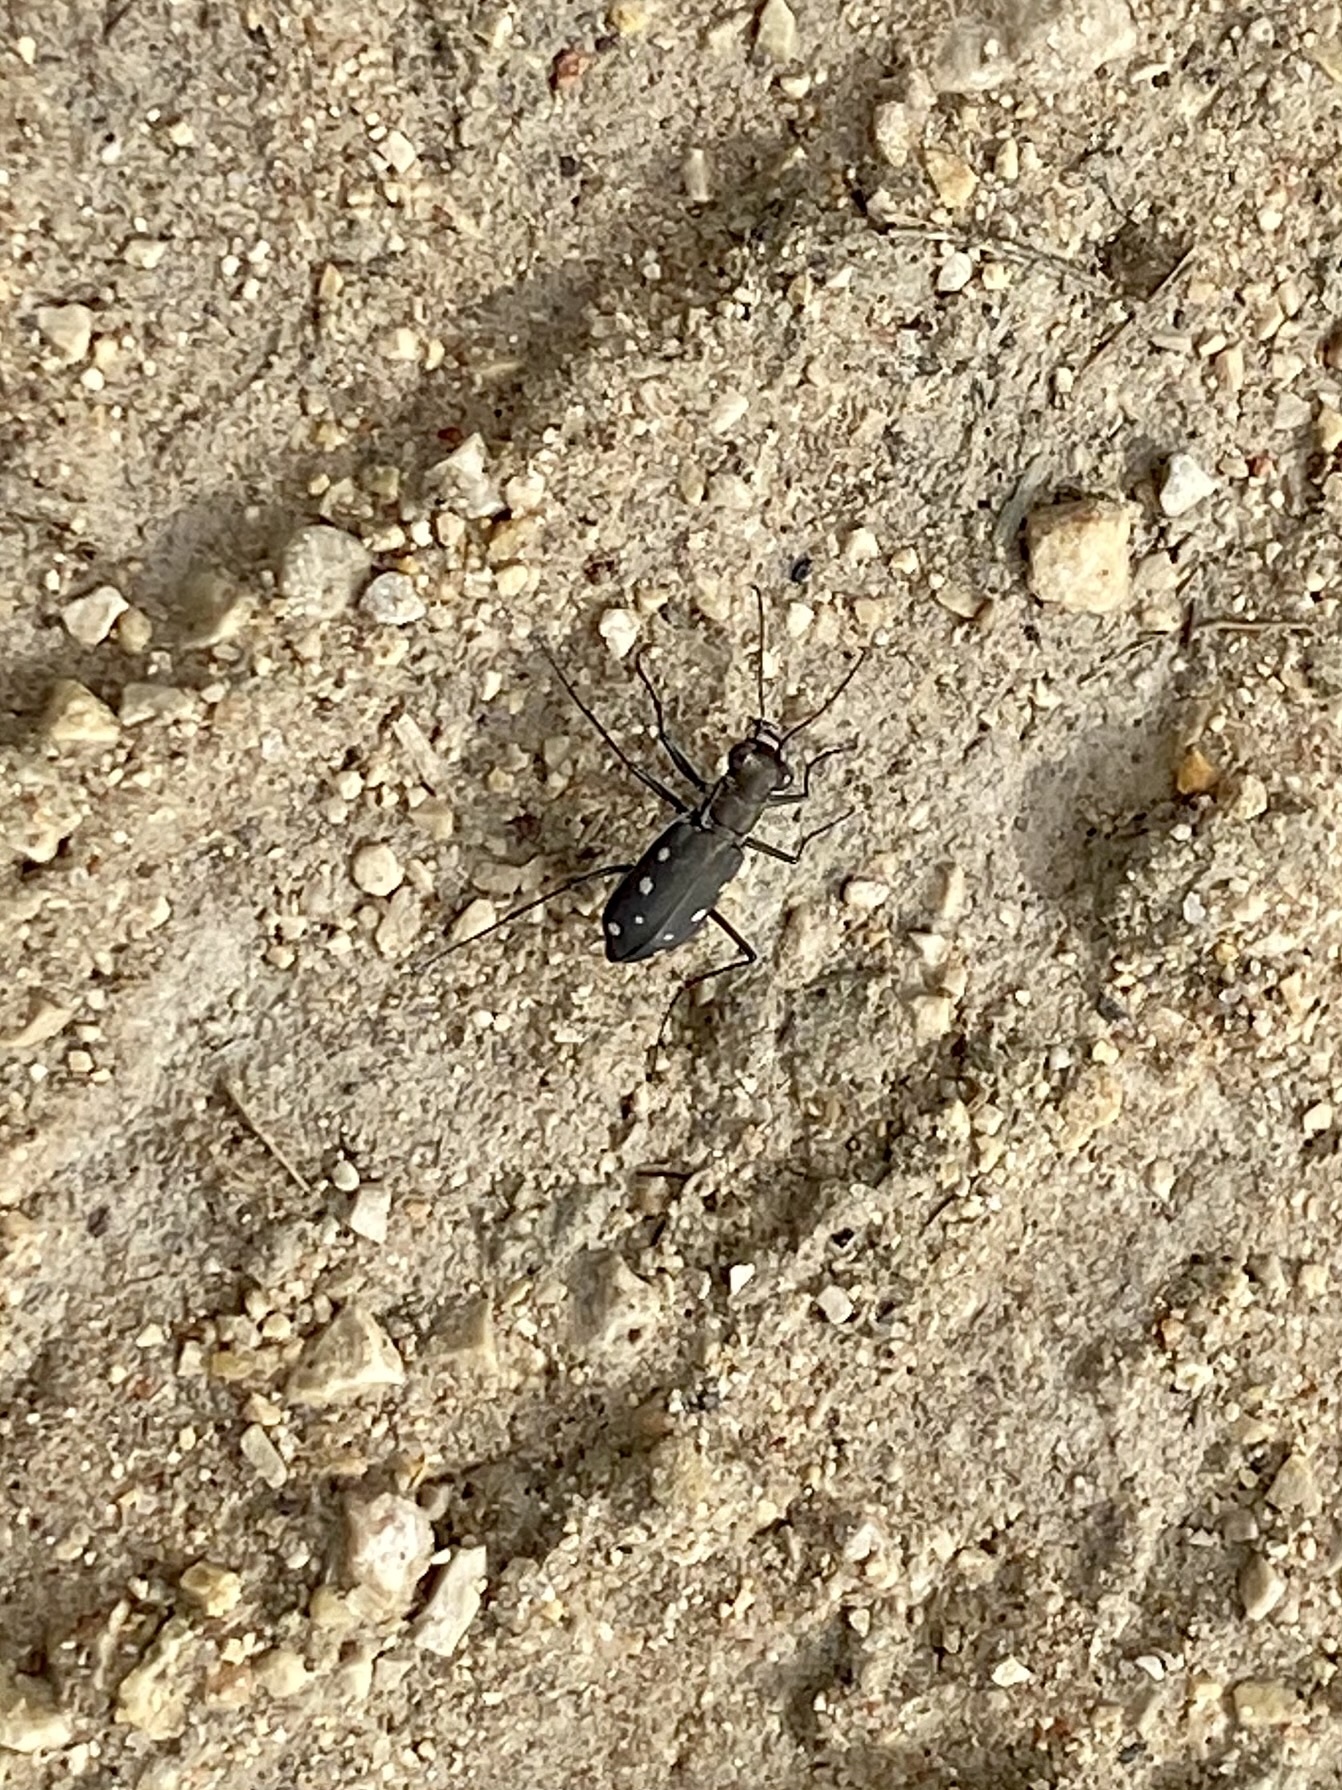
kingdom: Animalia
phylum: Arthropoda
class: Insecta
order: Coleoptera
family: Carabidae
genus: Cicindela
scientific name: Cicindela ocellata
